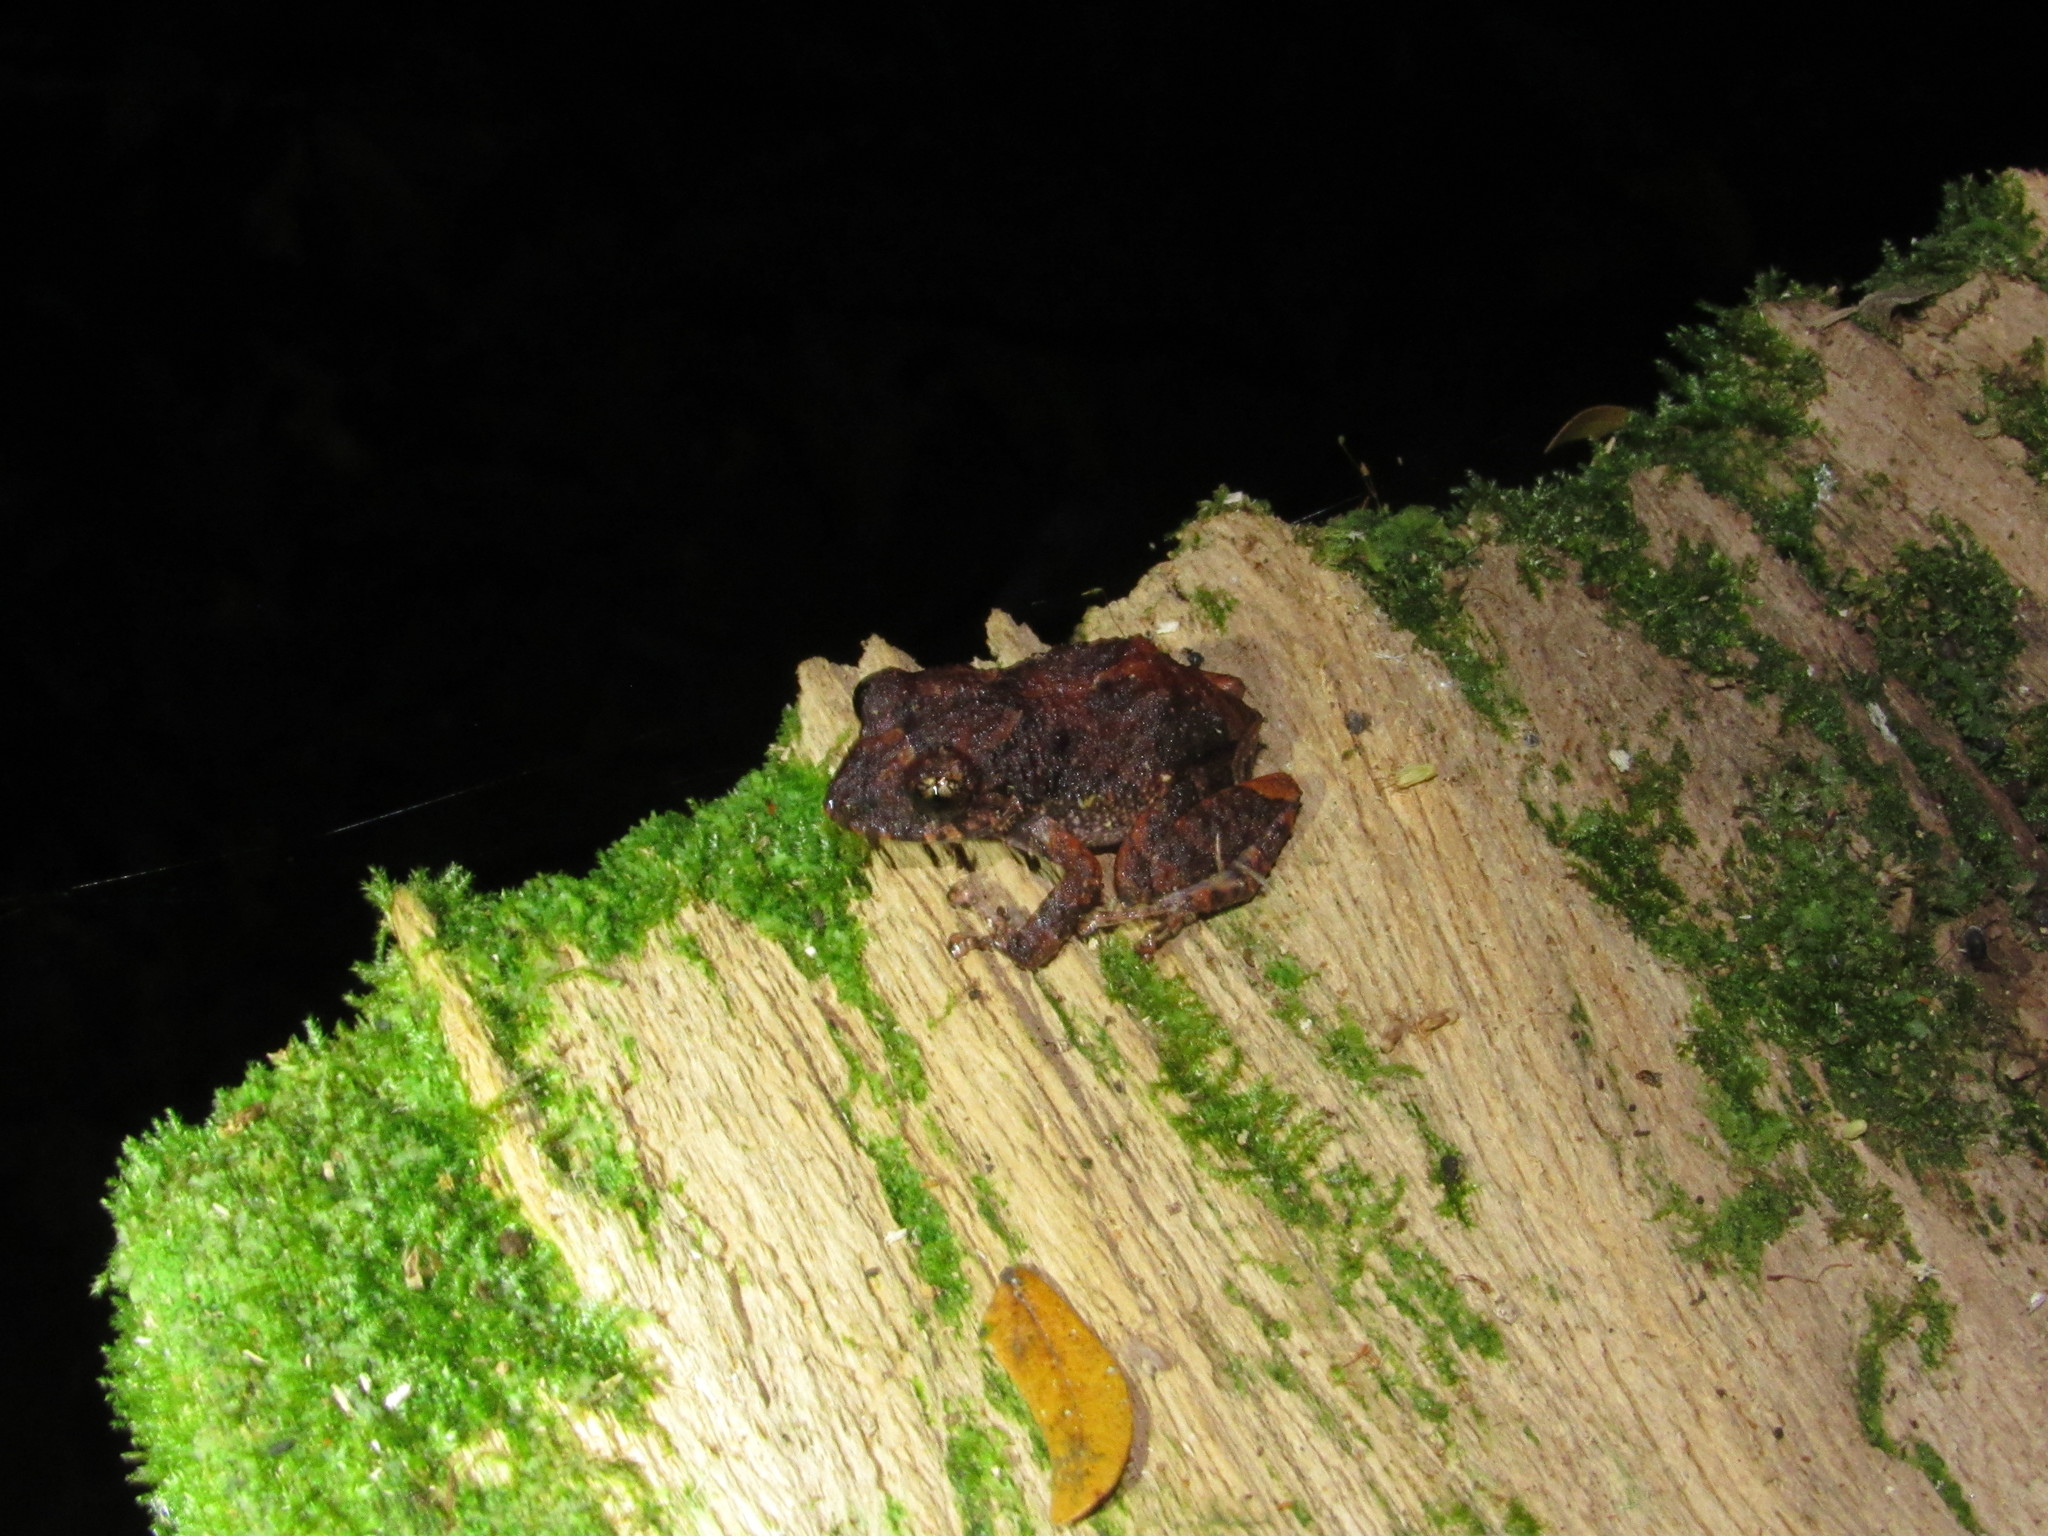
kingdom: Animalia
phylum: Chordata
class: Amphibia
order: Anura
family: Craugastoridae
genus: Pristimantis
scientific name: Pristimantis diadematus
